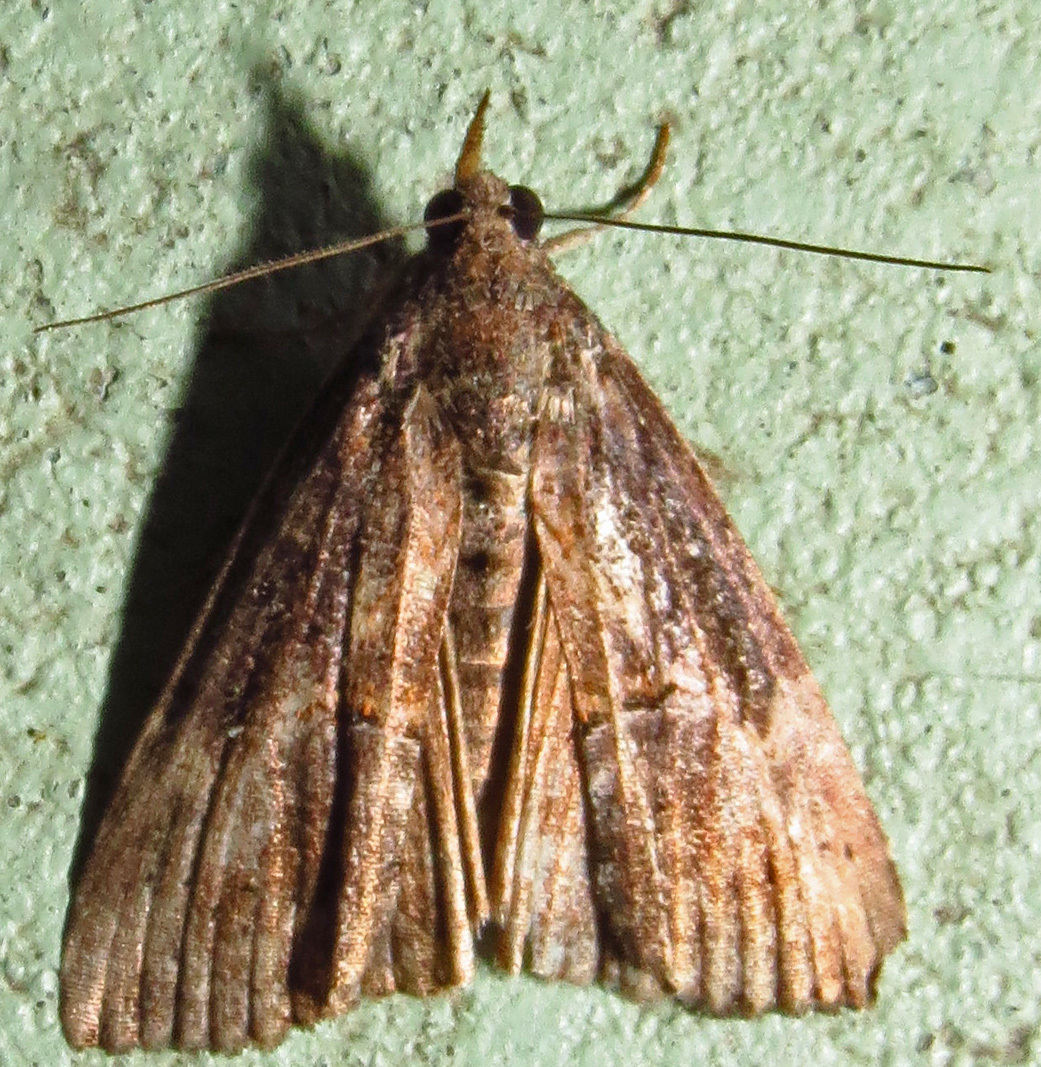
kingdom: Animalia
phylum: Arthropoda
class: Insecta
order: Lepidoptera
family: Erebidae
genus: Hypena
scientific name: Hypena scabra
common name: Green cloverworm
